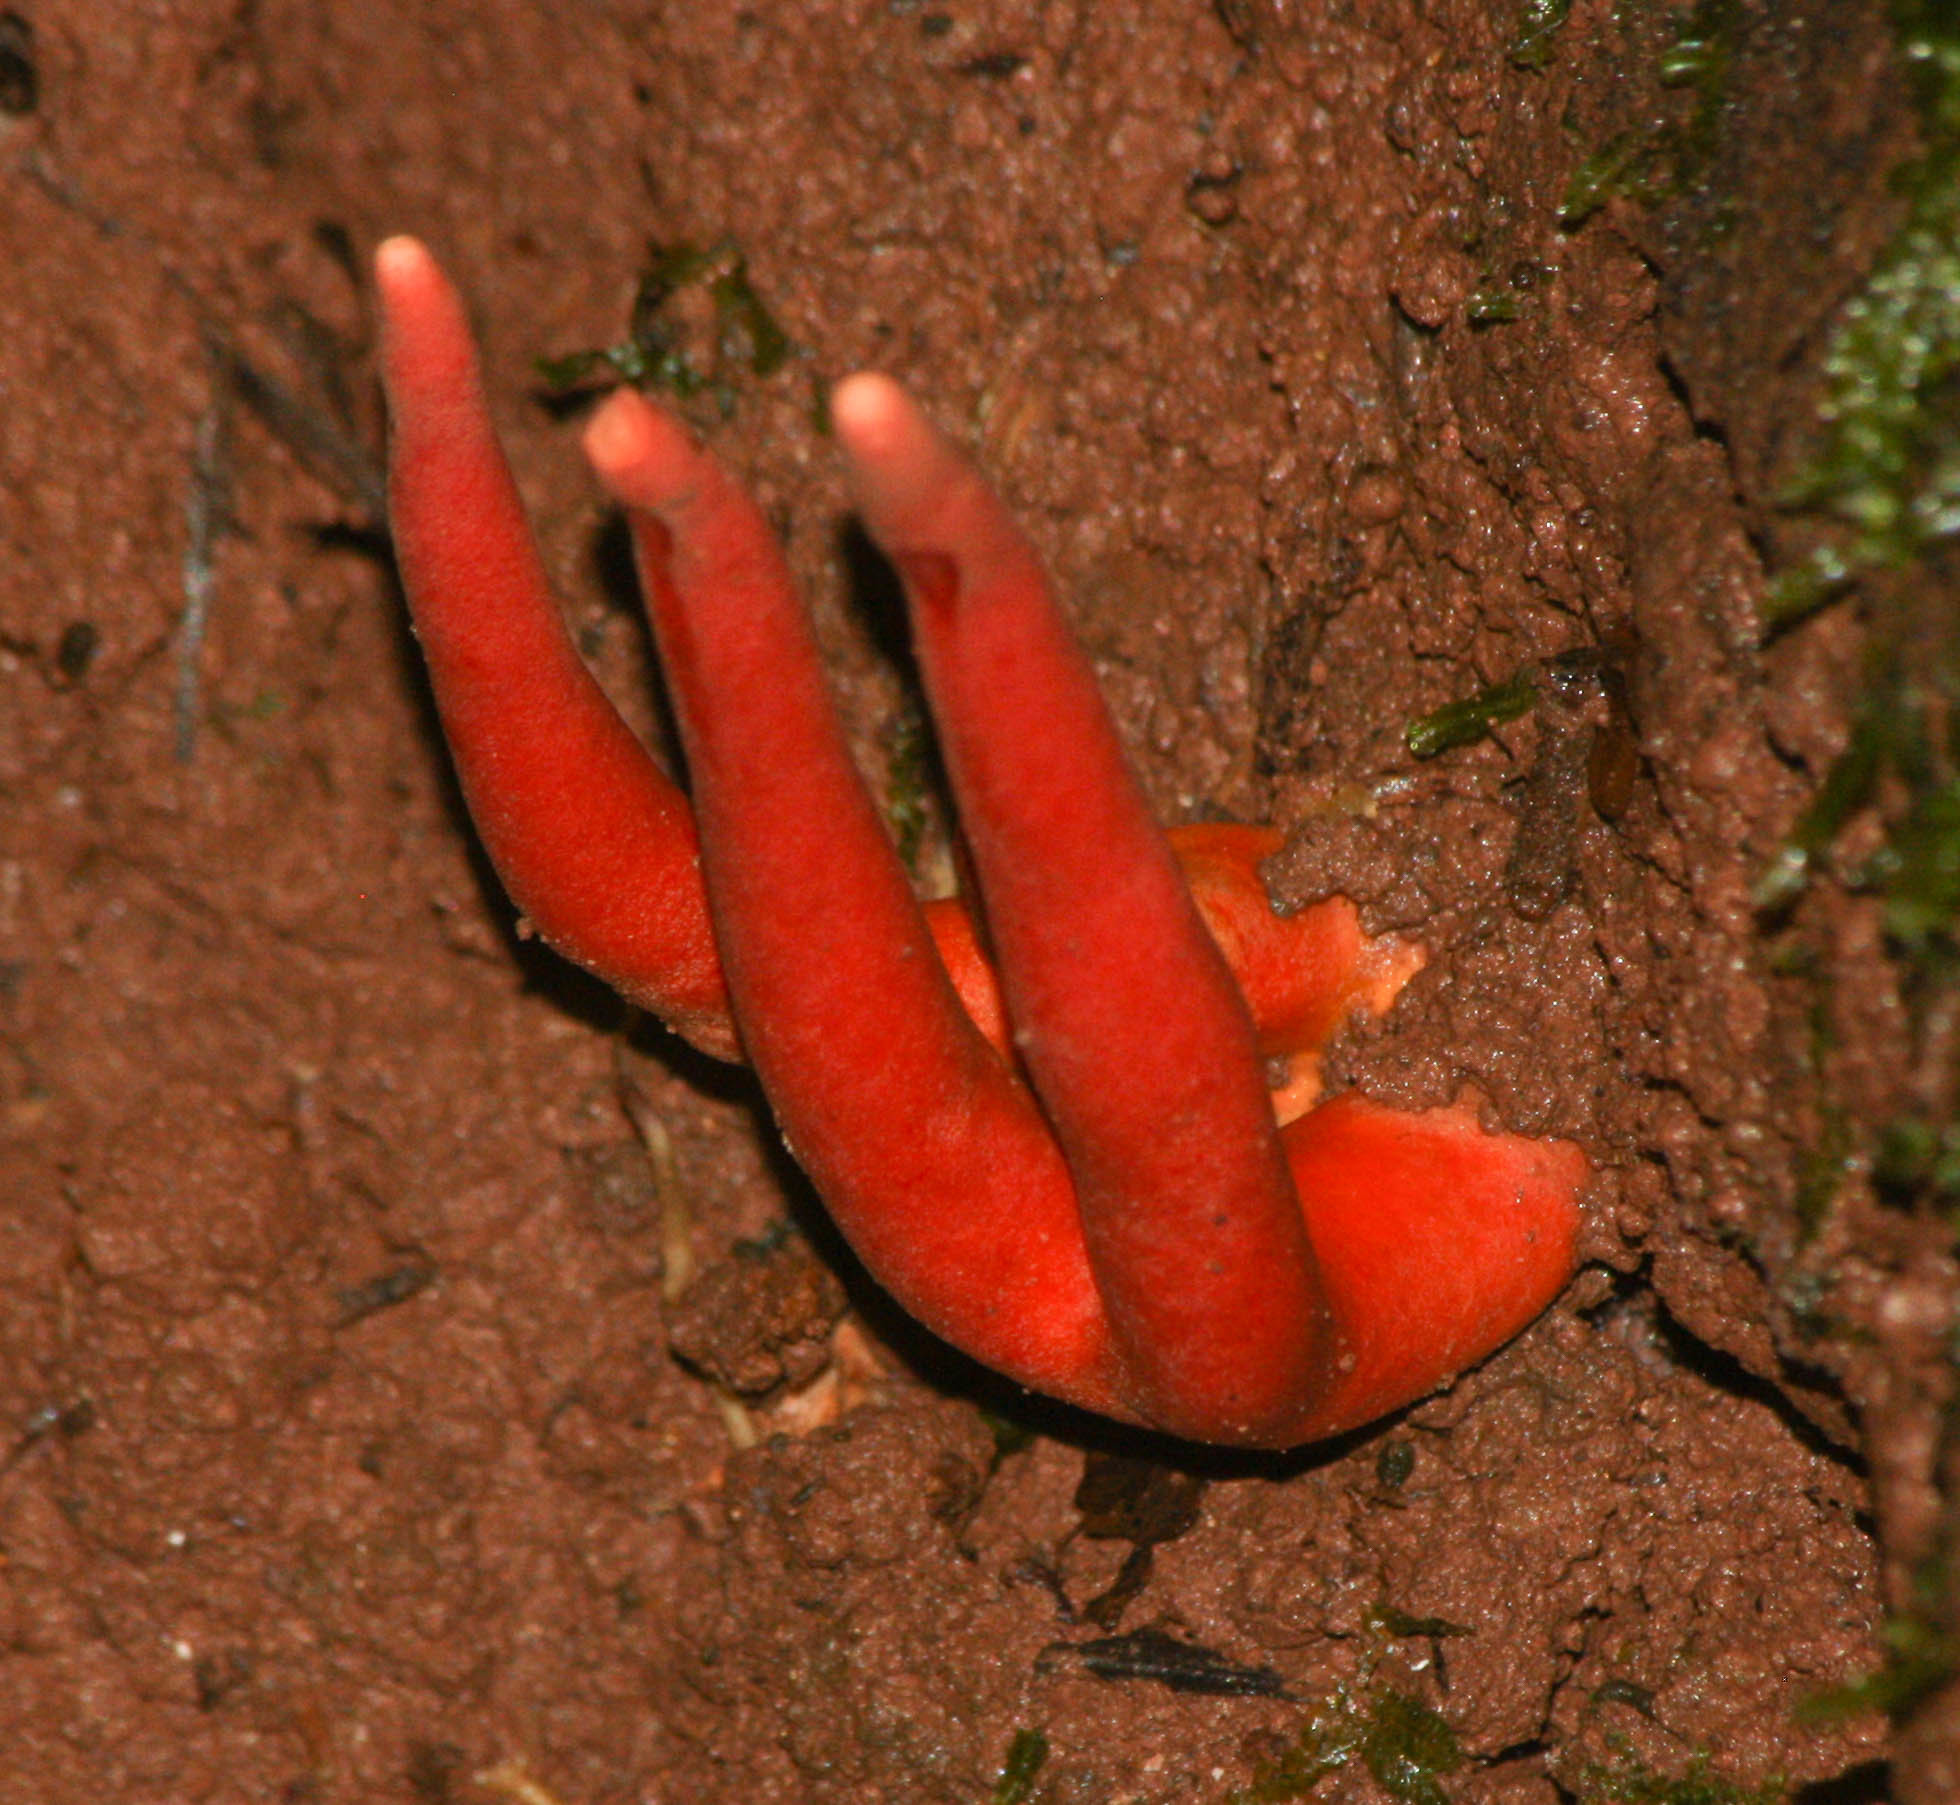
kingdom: Fungi
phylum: Ascomycota
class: Sordariomycetes
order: Hypocreales
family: Hypocreaceae
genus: Trichoderma
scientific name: Trichoderma cornu-damae
